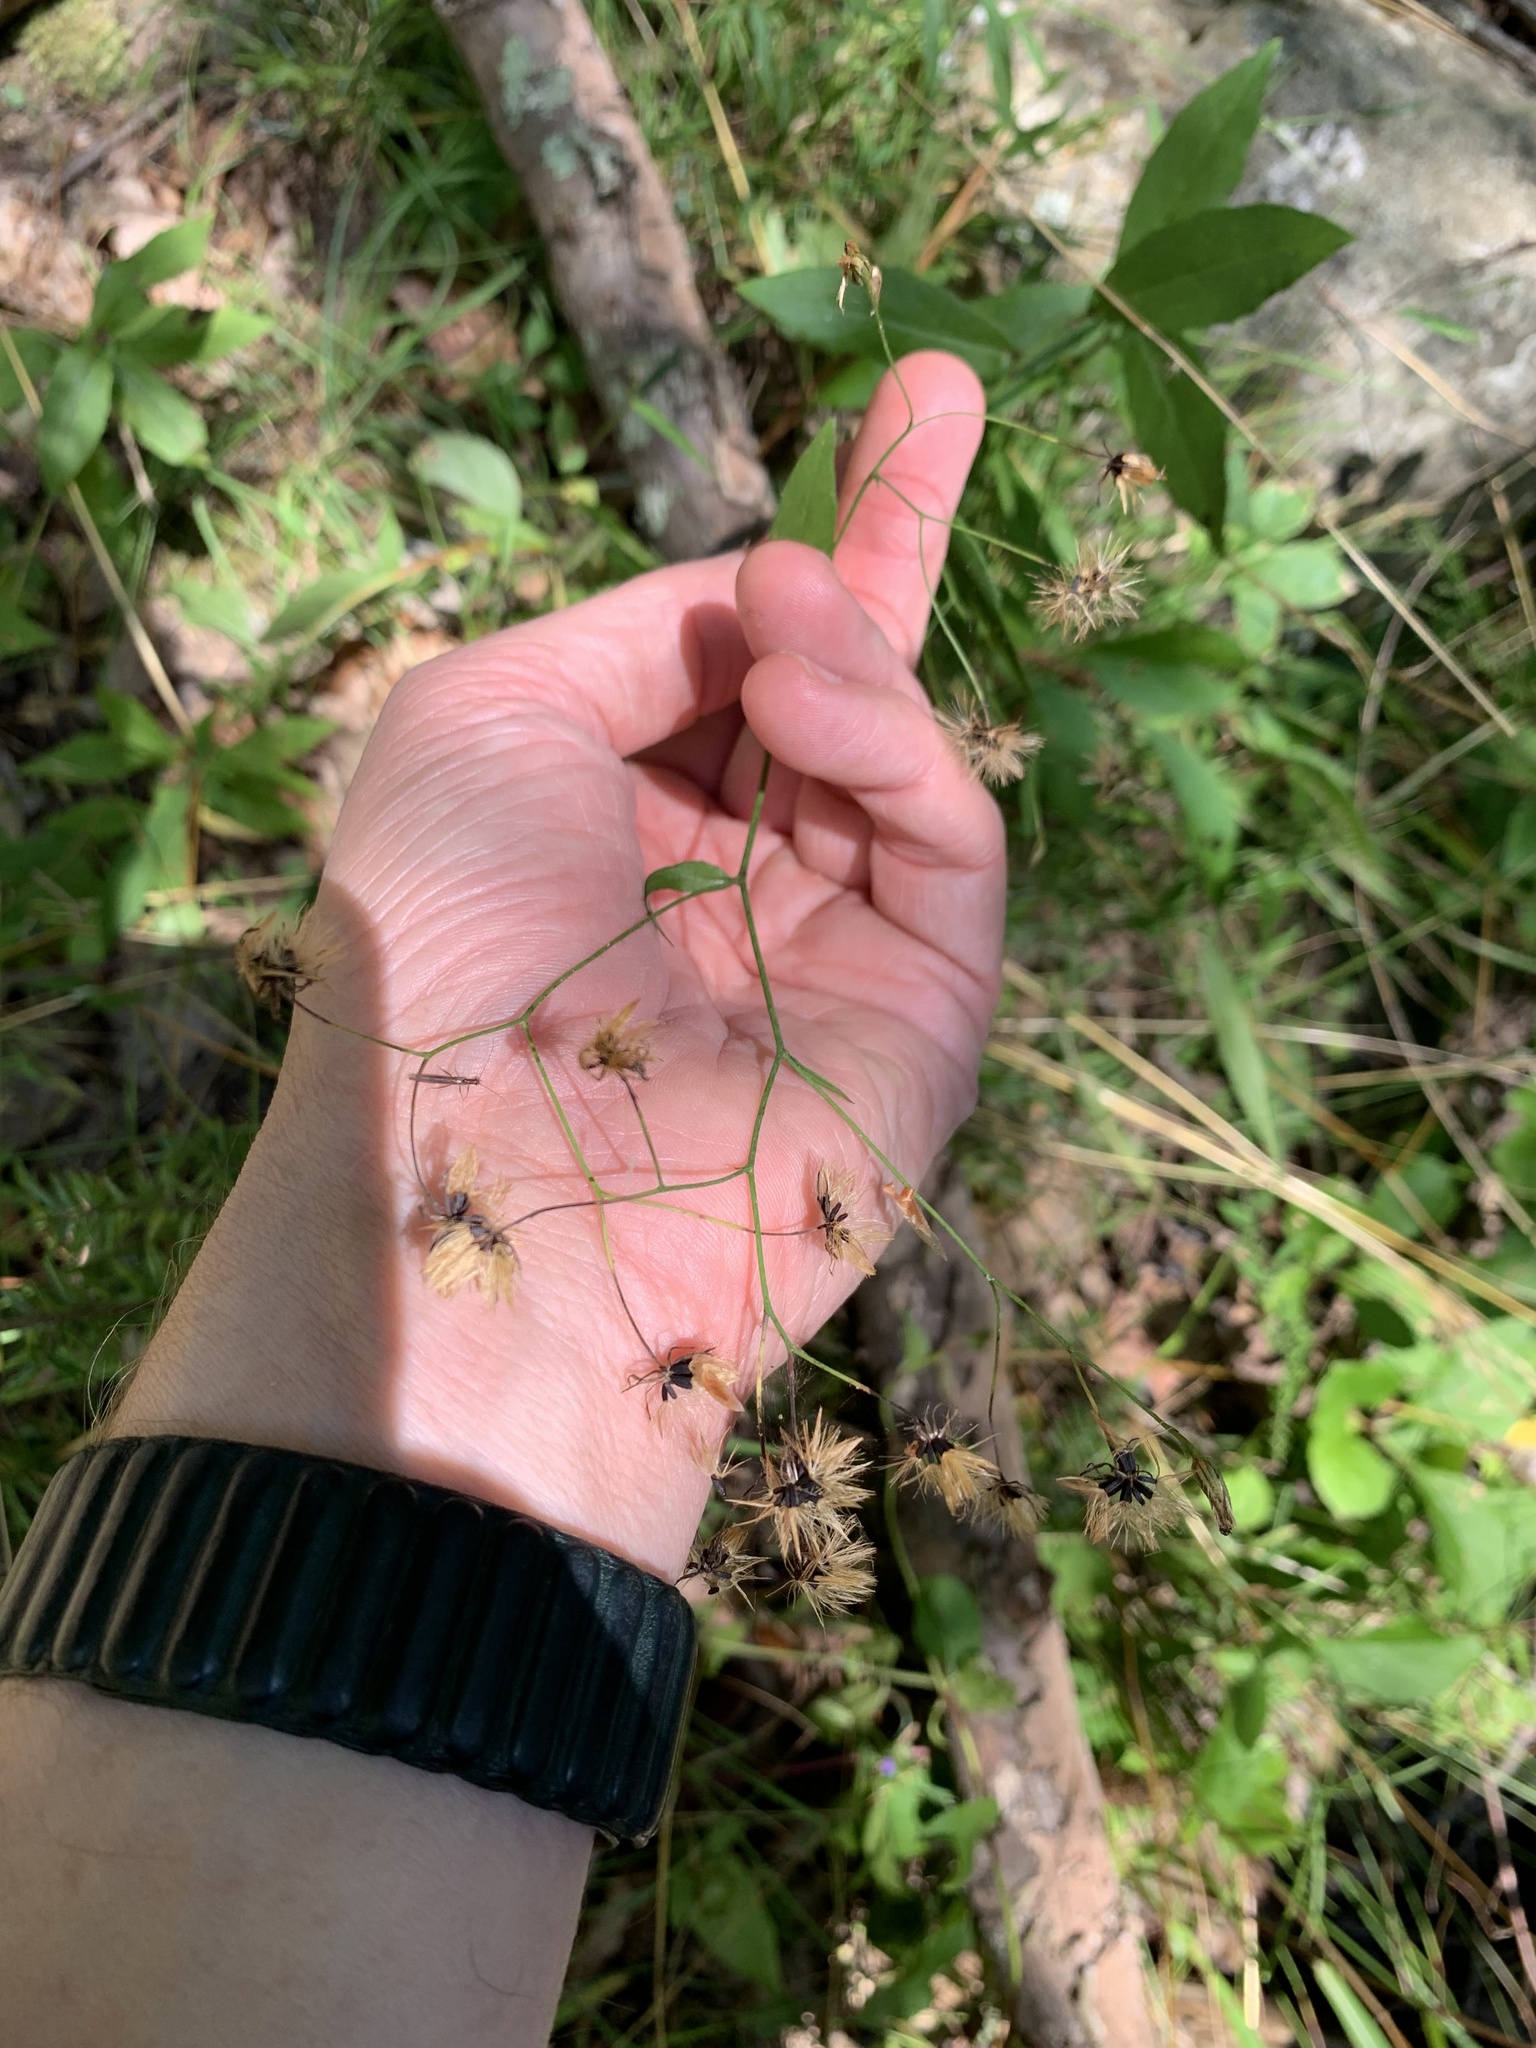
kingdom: Plantae
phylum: Tracheophyta
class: Magnoliopsida
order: Asterales
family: Asteraceae
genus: Hieracium
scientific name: Hieracium paniculatum
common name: Allegheny hawkweed
